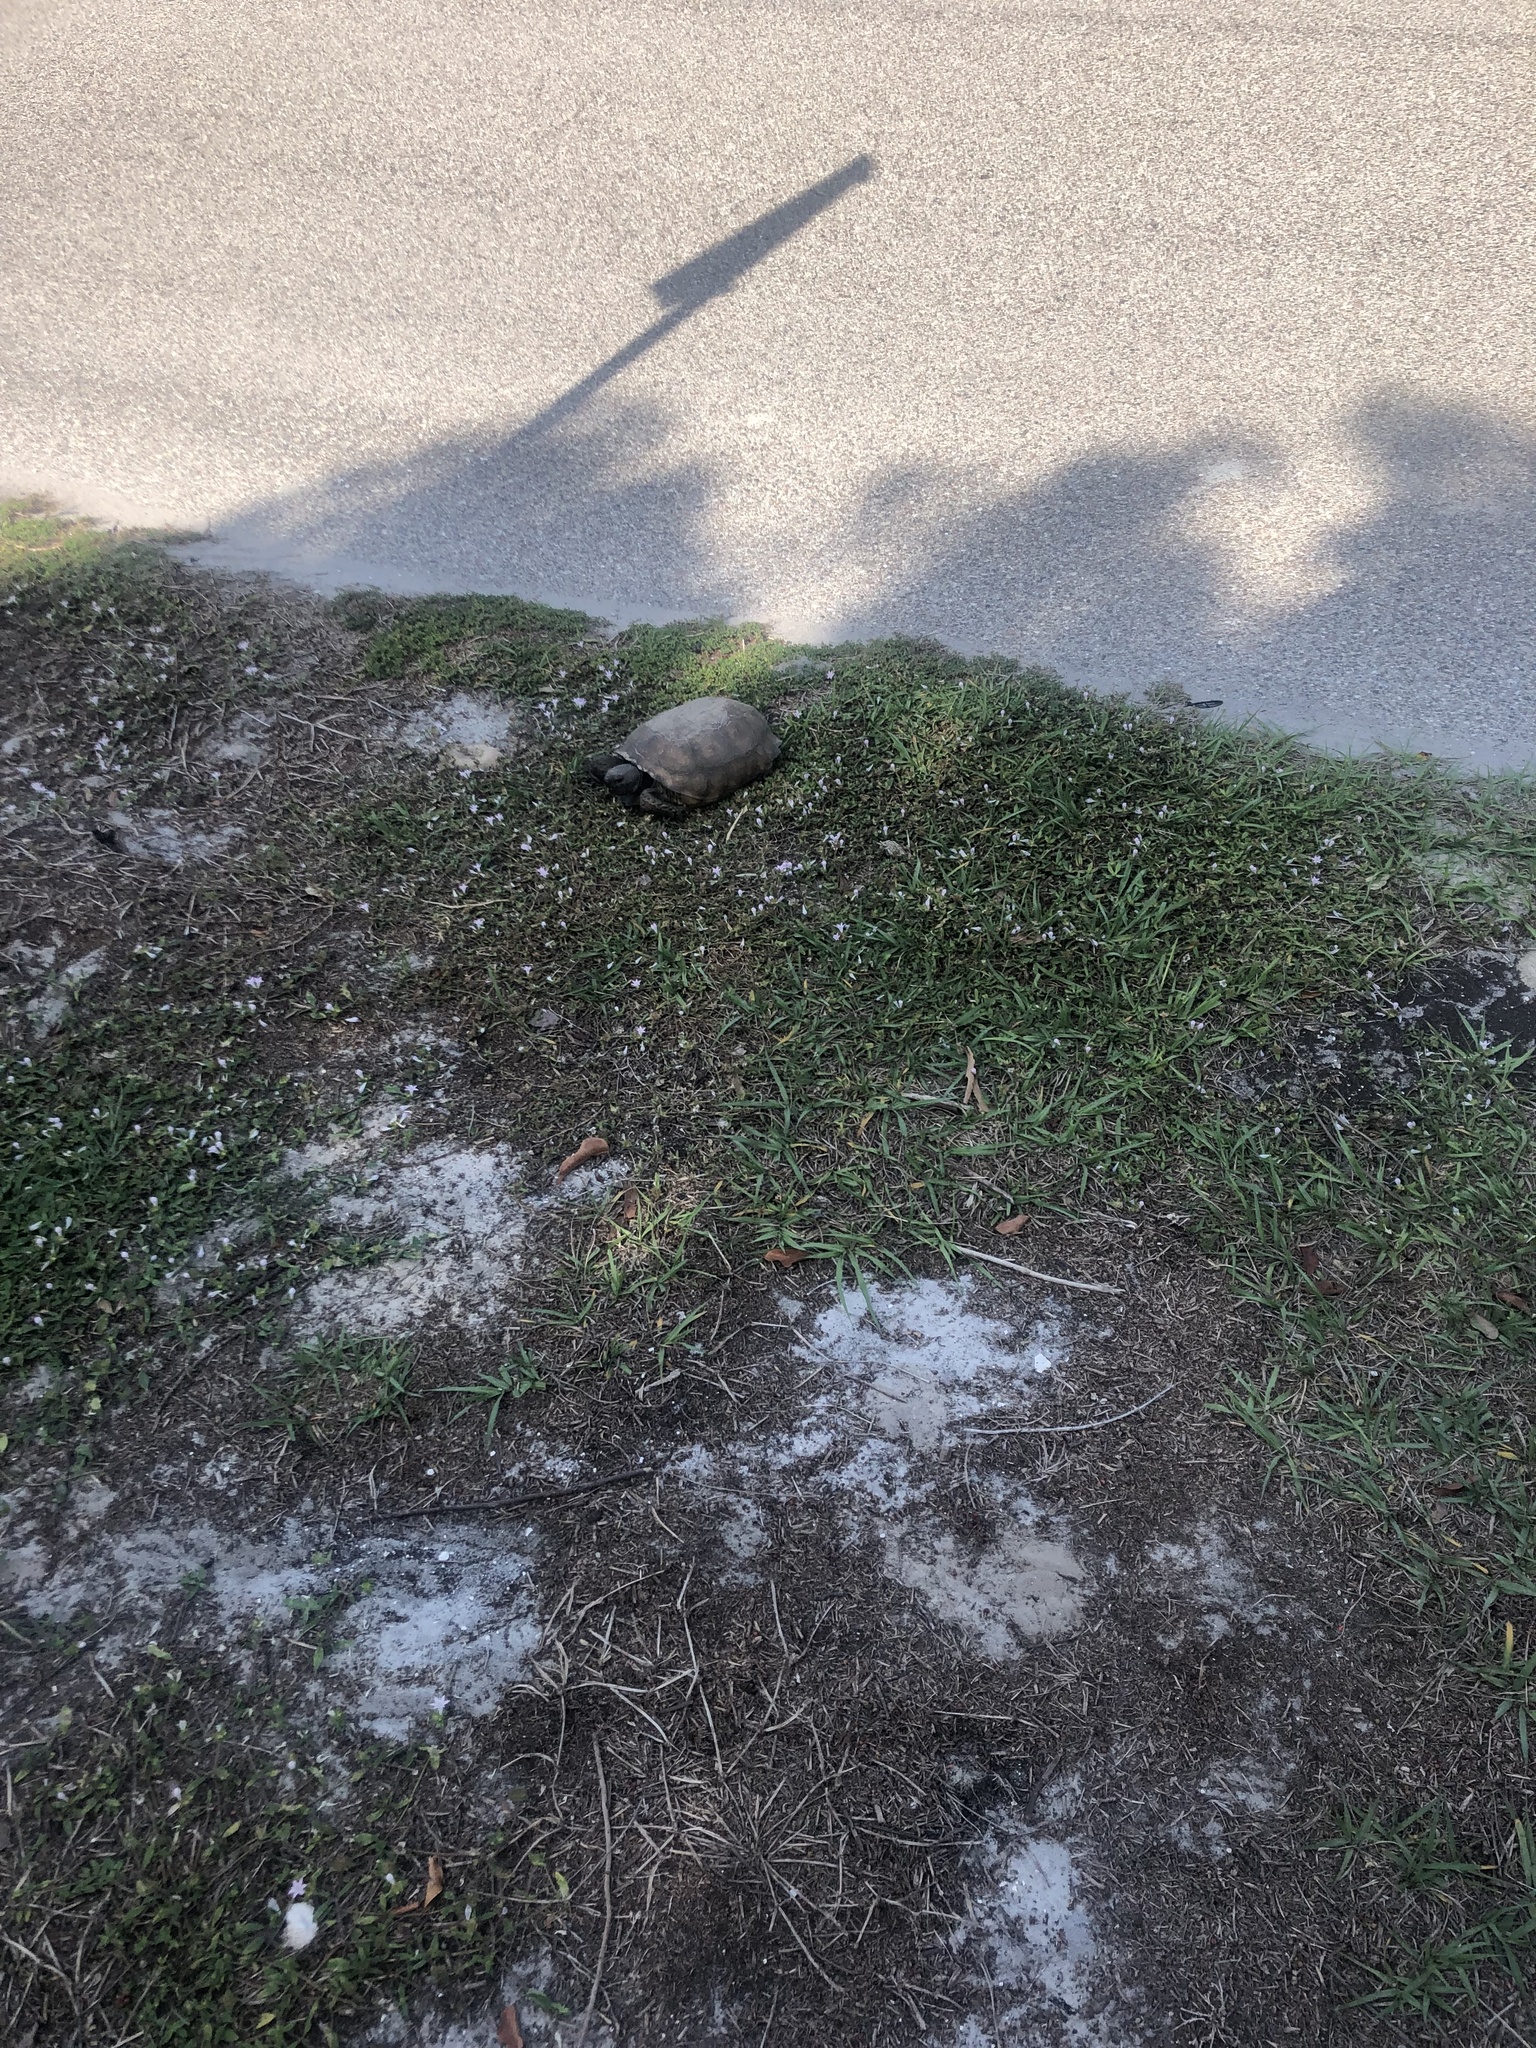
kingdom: Animalia
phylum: Chordata
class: Testudines
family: Testudinidae
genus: Gopherus
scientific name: Gopherus polyphemus
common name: Florida gopher tortoise
